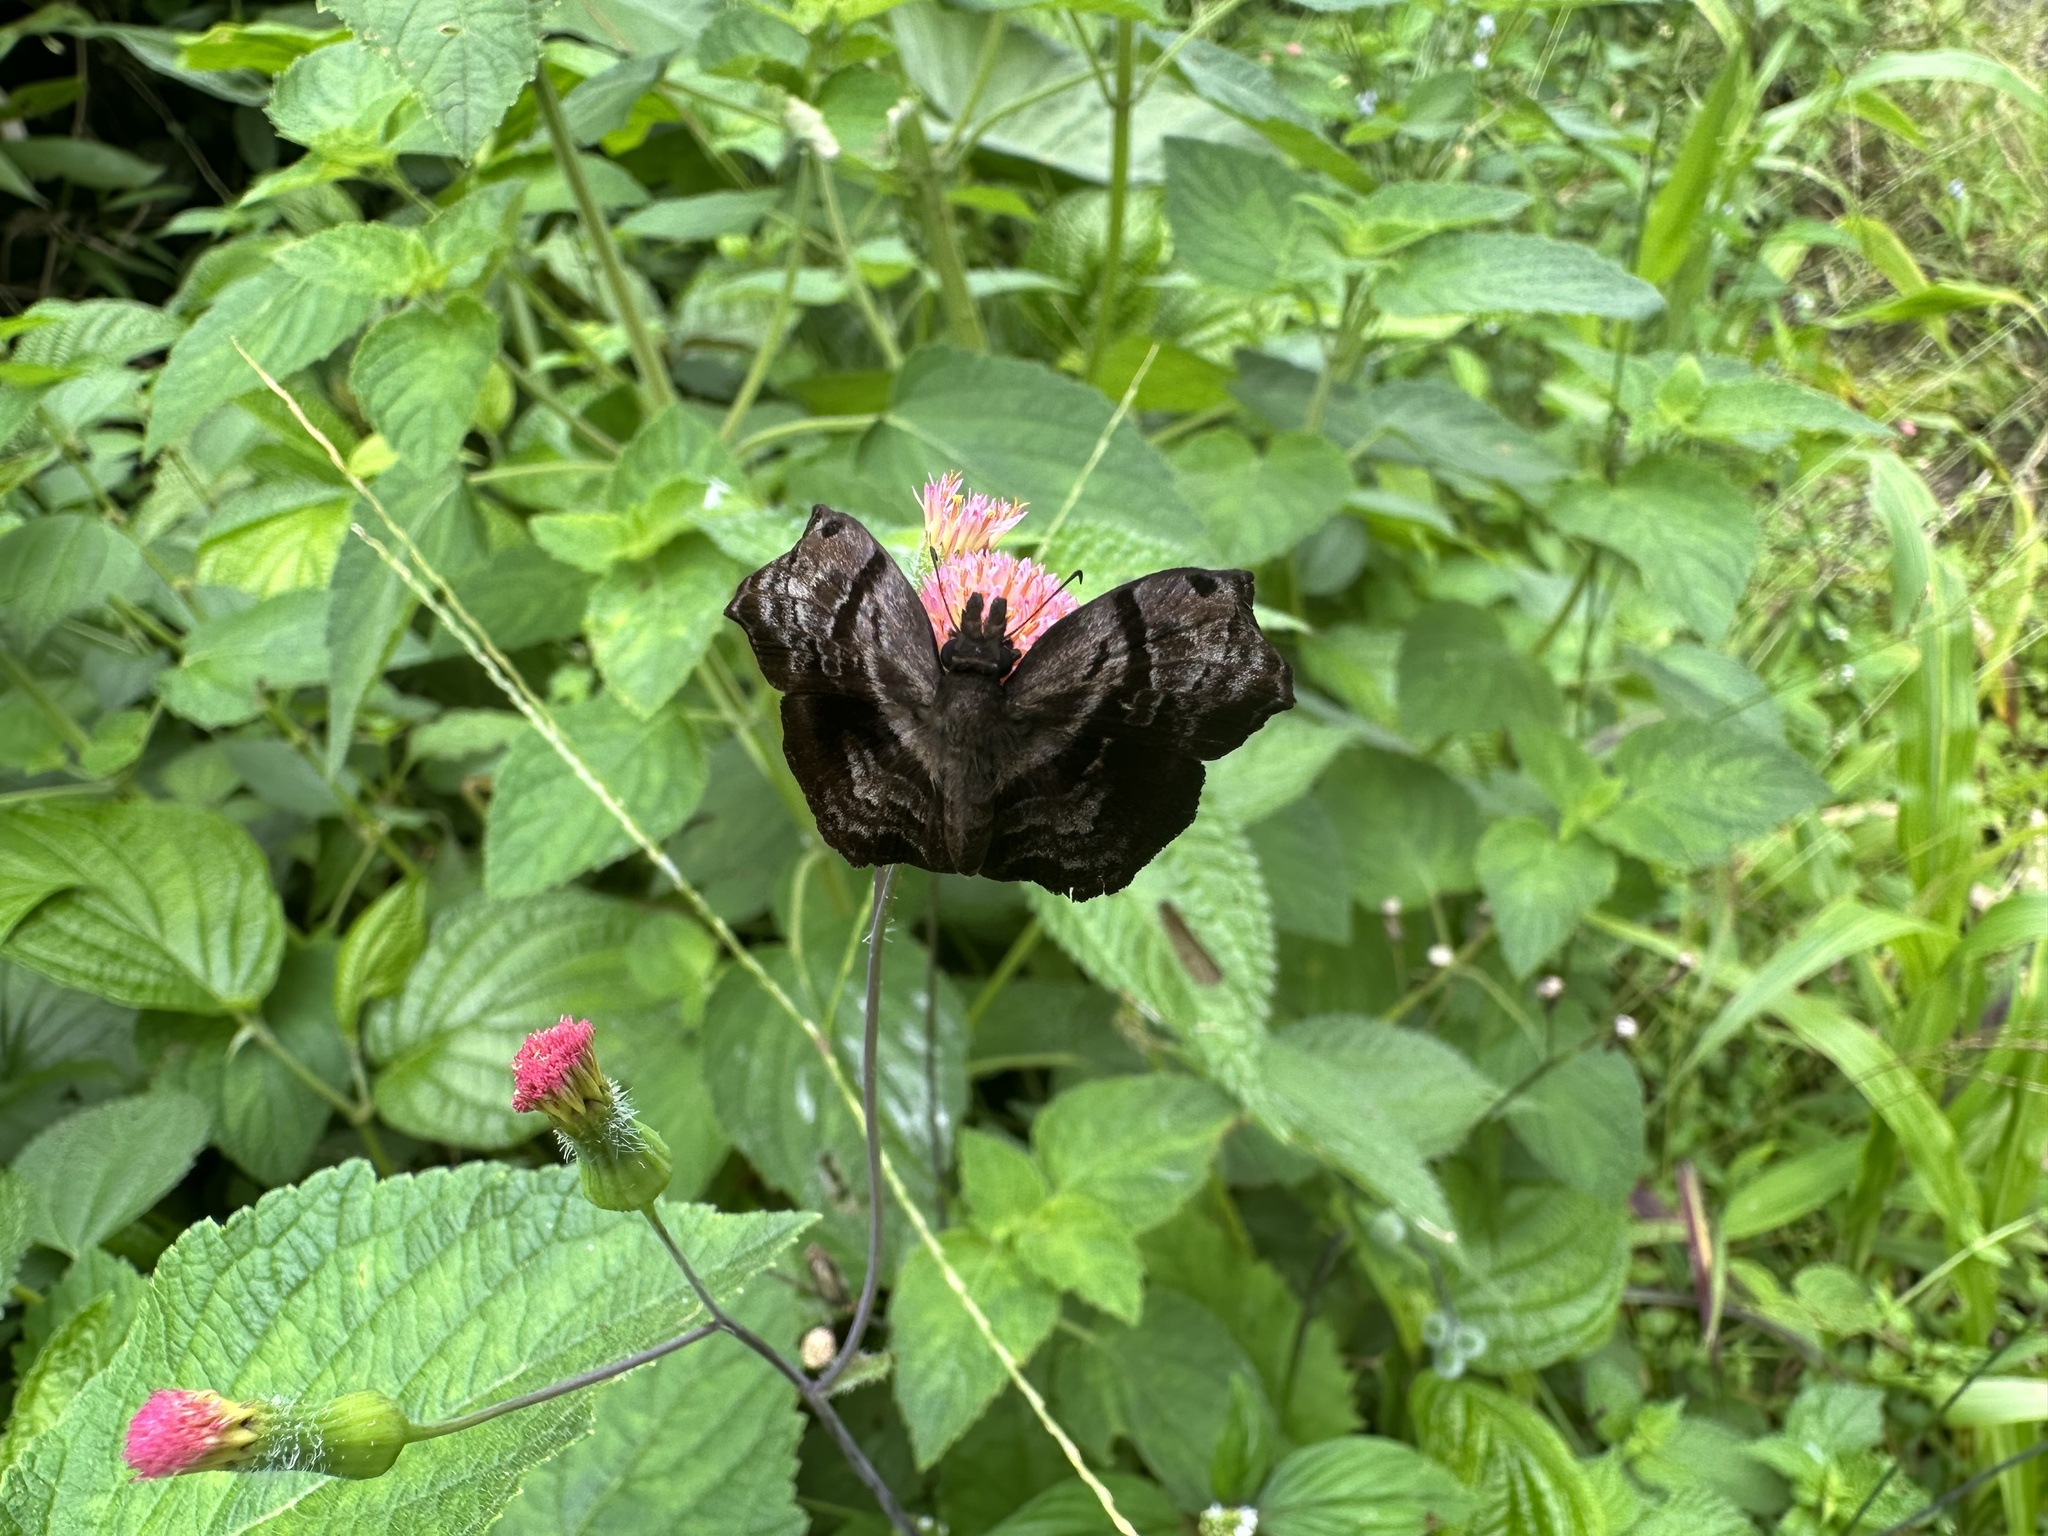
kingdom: Animalia
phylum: Arthropoda
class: Insecta
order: Lepidoptera
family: Hesperiidae
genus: Helias
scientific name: Helias phalaenoides
